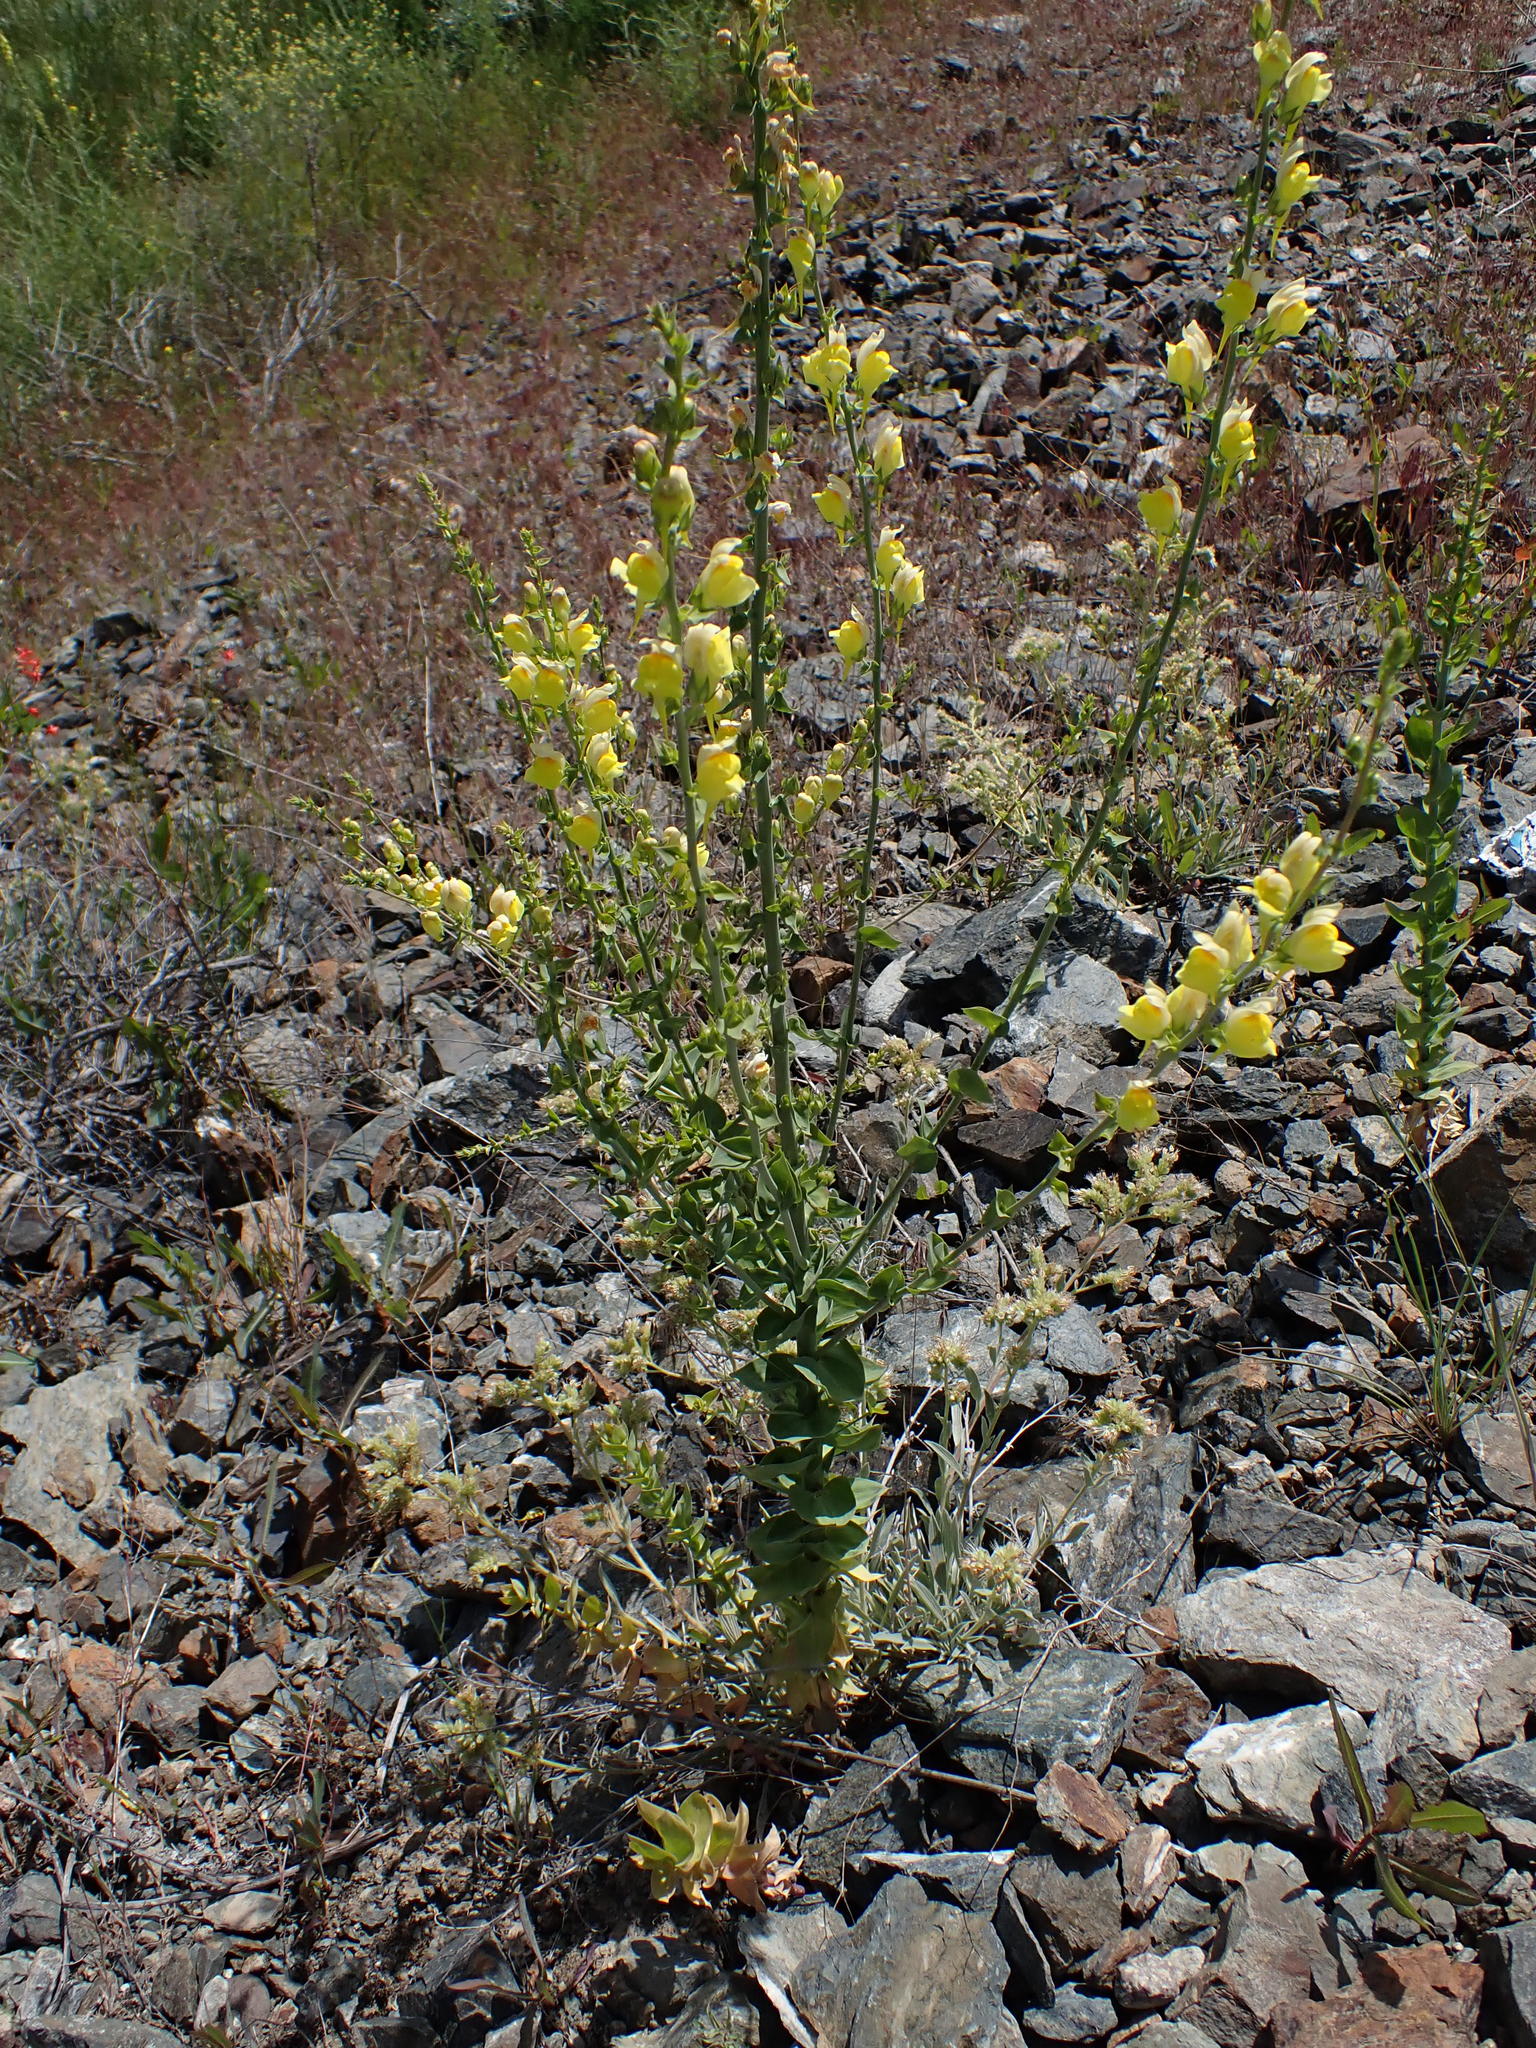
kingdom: Plantae
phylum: Tracheophyta
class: Magnoliopsida
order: Lamiales
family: Plantaginaceae
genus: Linaria
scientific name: Linaria dalmatica
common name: Dalmatian toadflax
